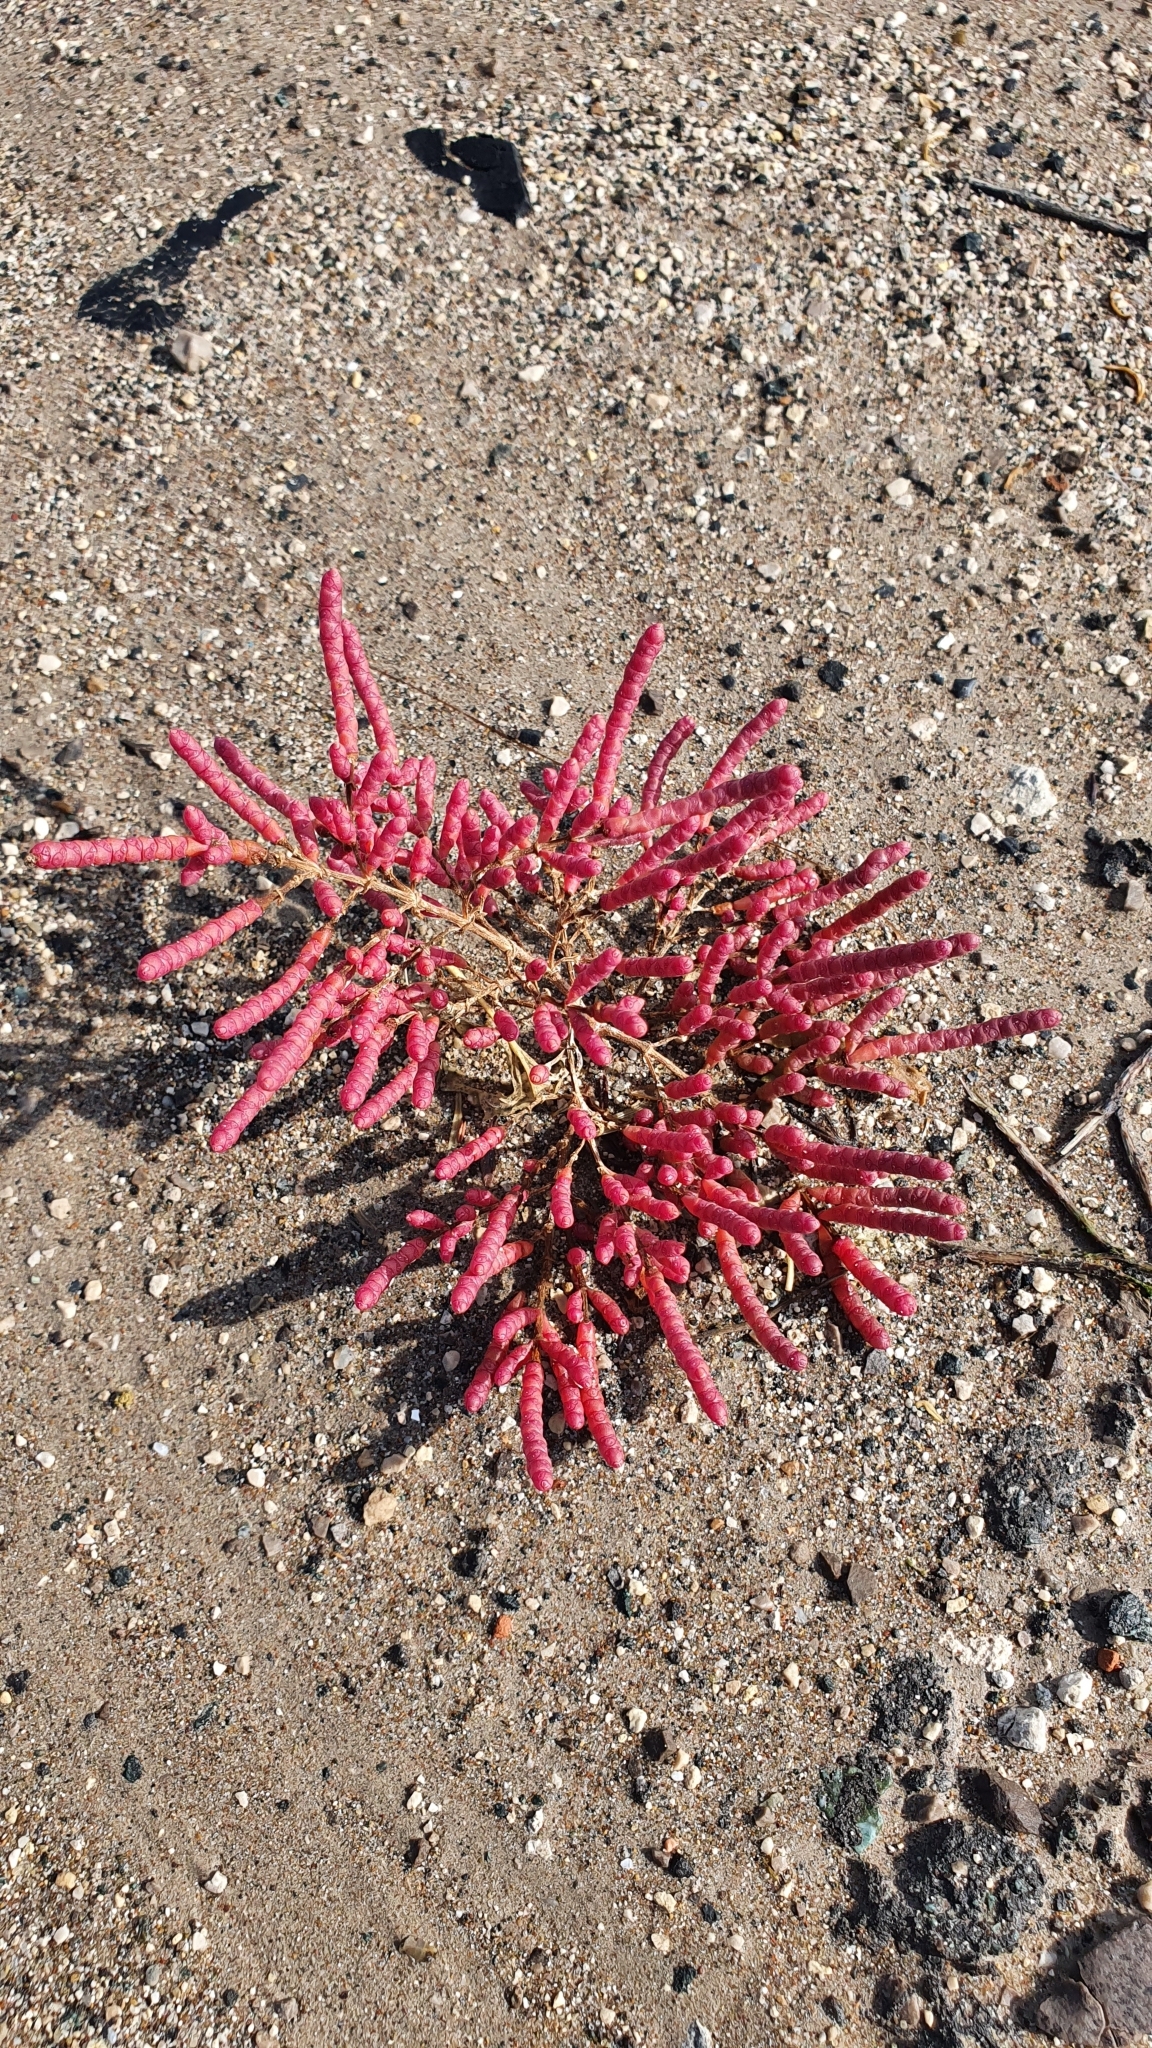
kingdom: Plantae
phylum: Tracheophyta
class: Magnoliopsida
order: Caryophyllales
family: Amaranthaceae
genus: Salicornia
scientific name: Salicornia perennans
